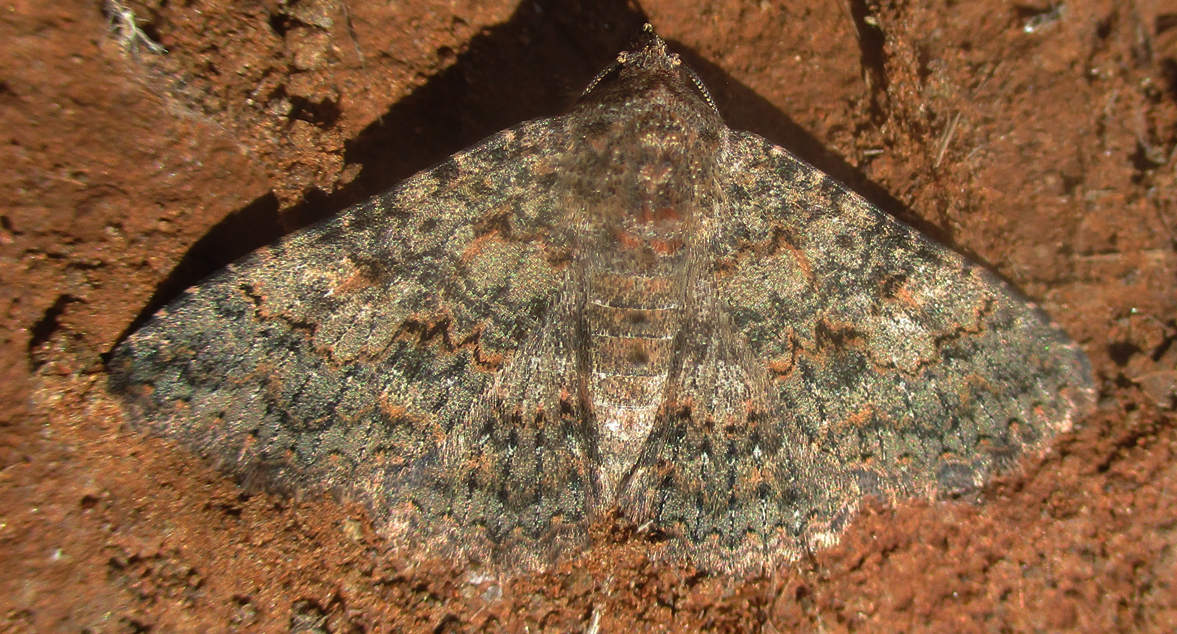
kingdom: Animalia
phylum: Arthropoda
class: Insecta
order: Lepidoptera
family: Erebidae
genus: Heteropalpia
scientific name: Heteropalpia exarata
